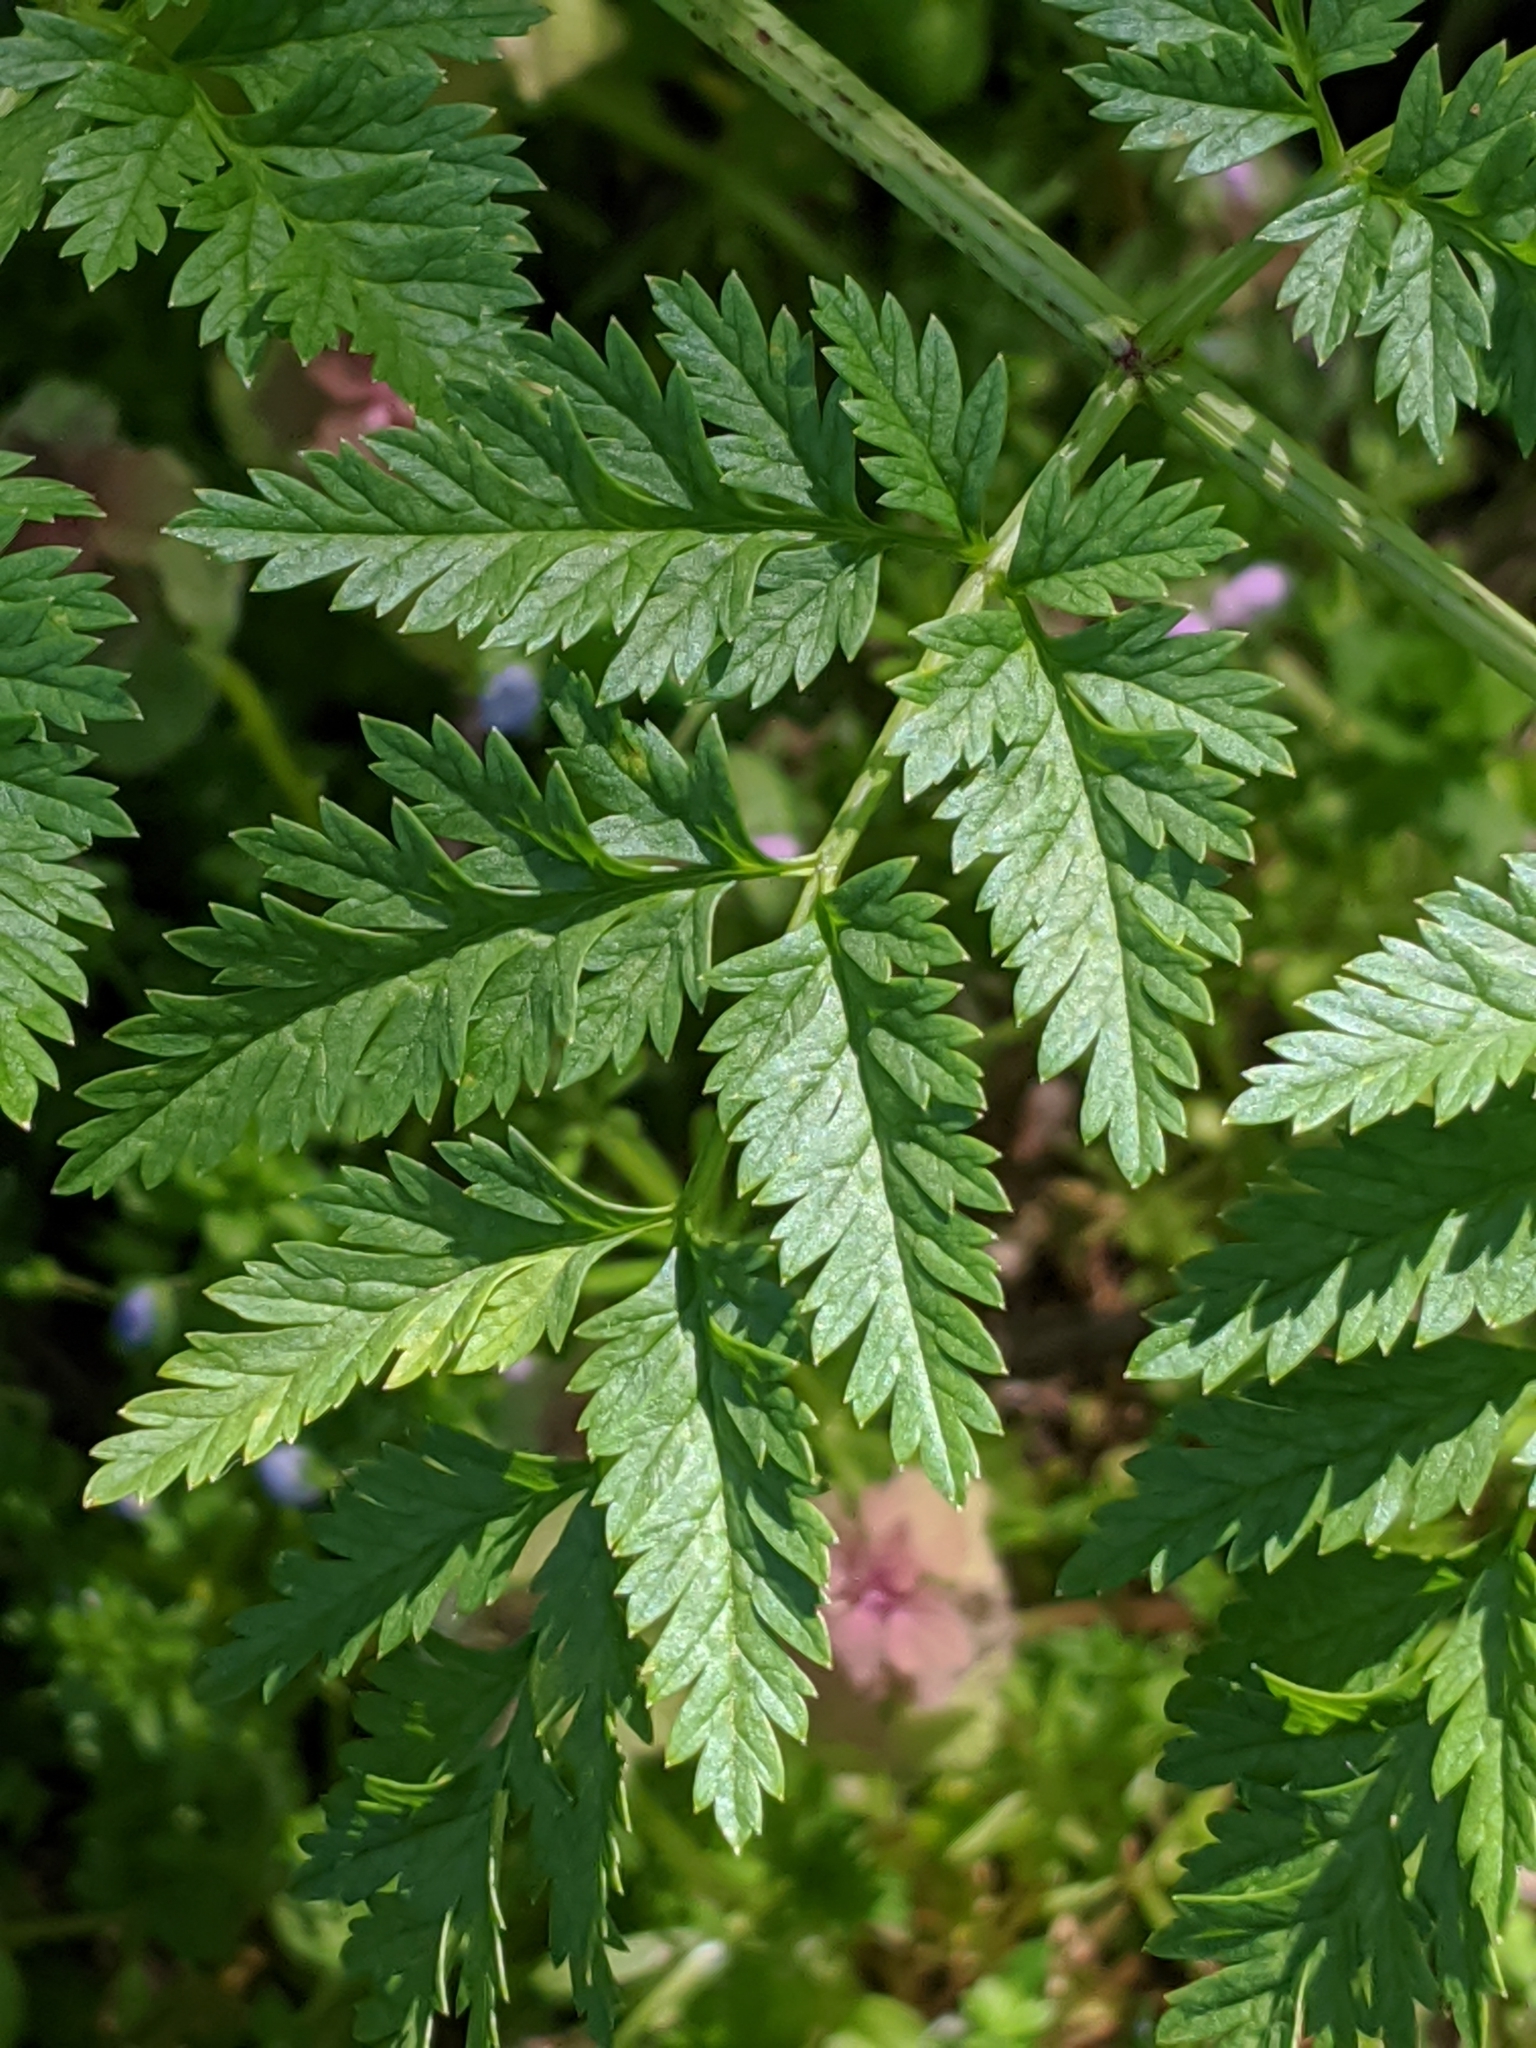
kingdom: Plantae
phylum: Tracheophyta
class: Magnoliopsida
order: Apiales
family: Apiaceae
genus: Conium
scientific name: Conium maculatum
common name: Hemlock
